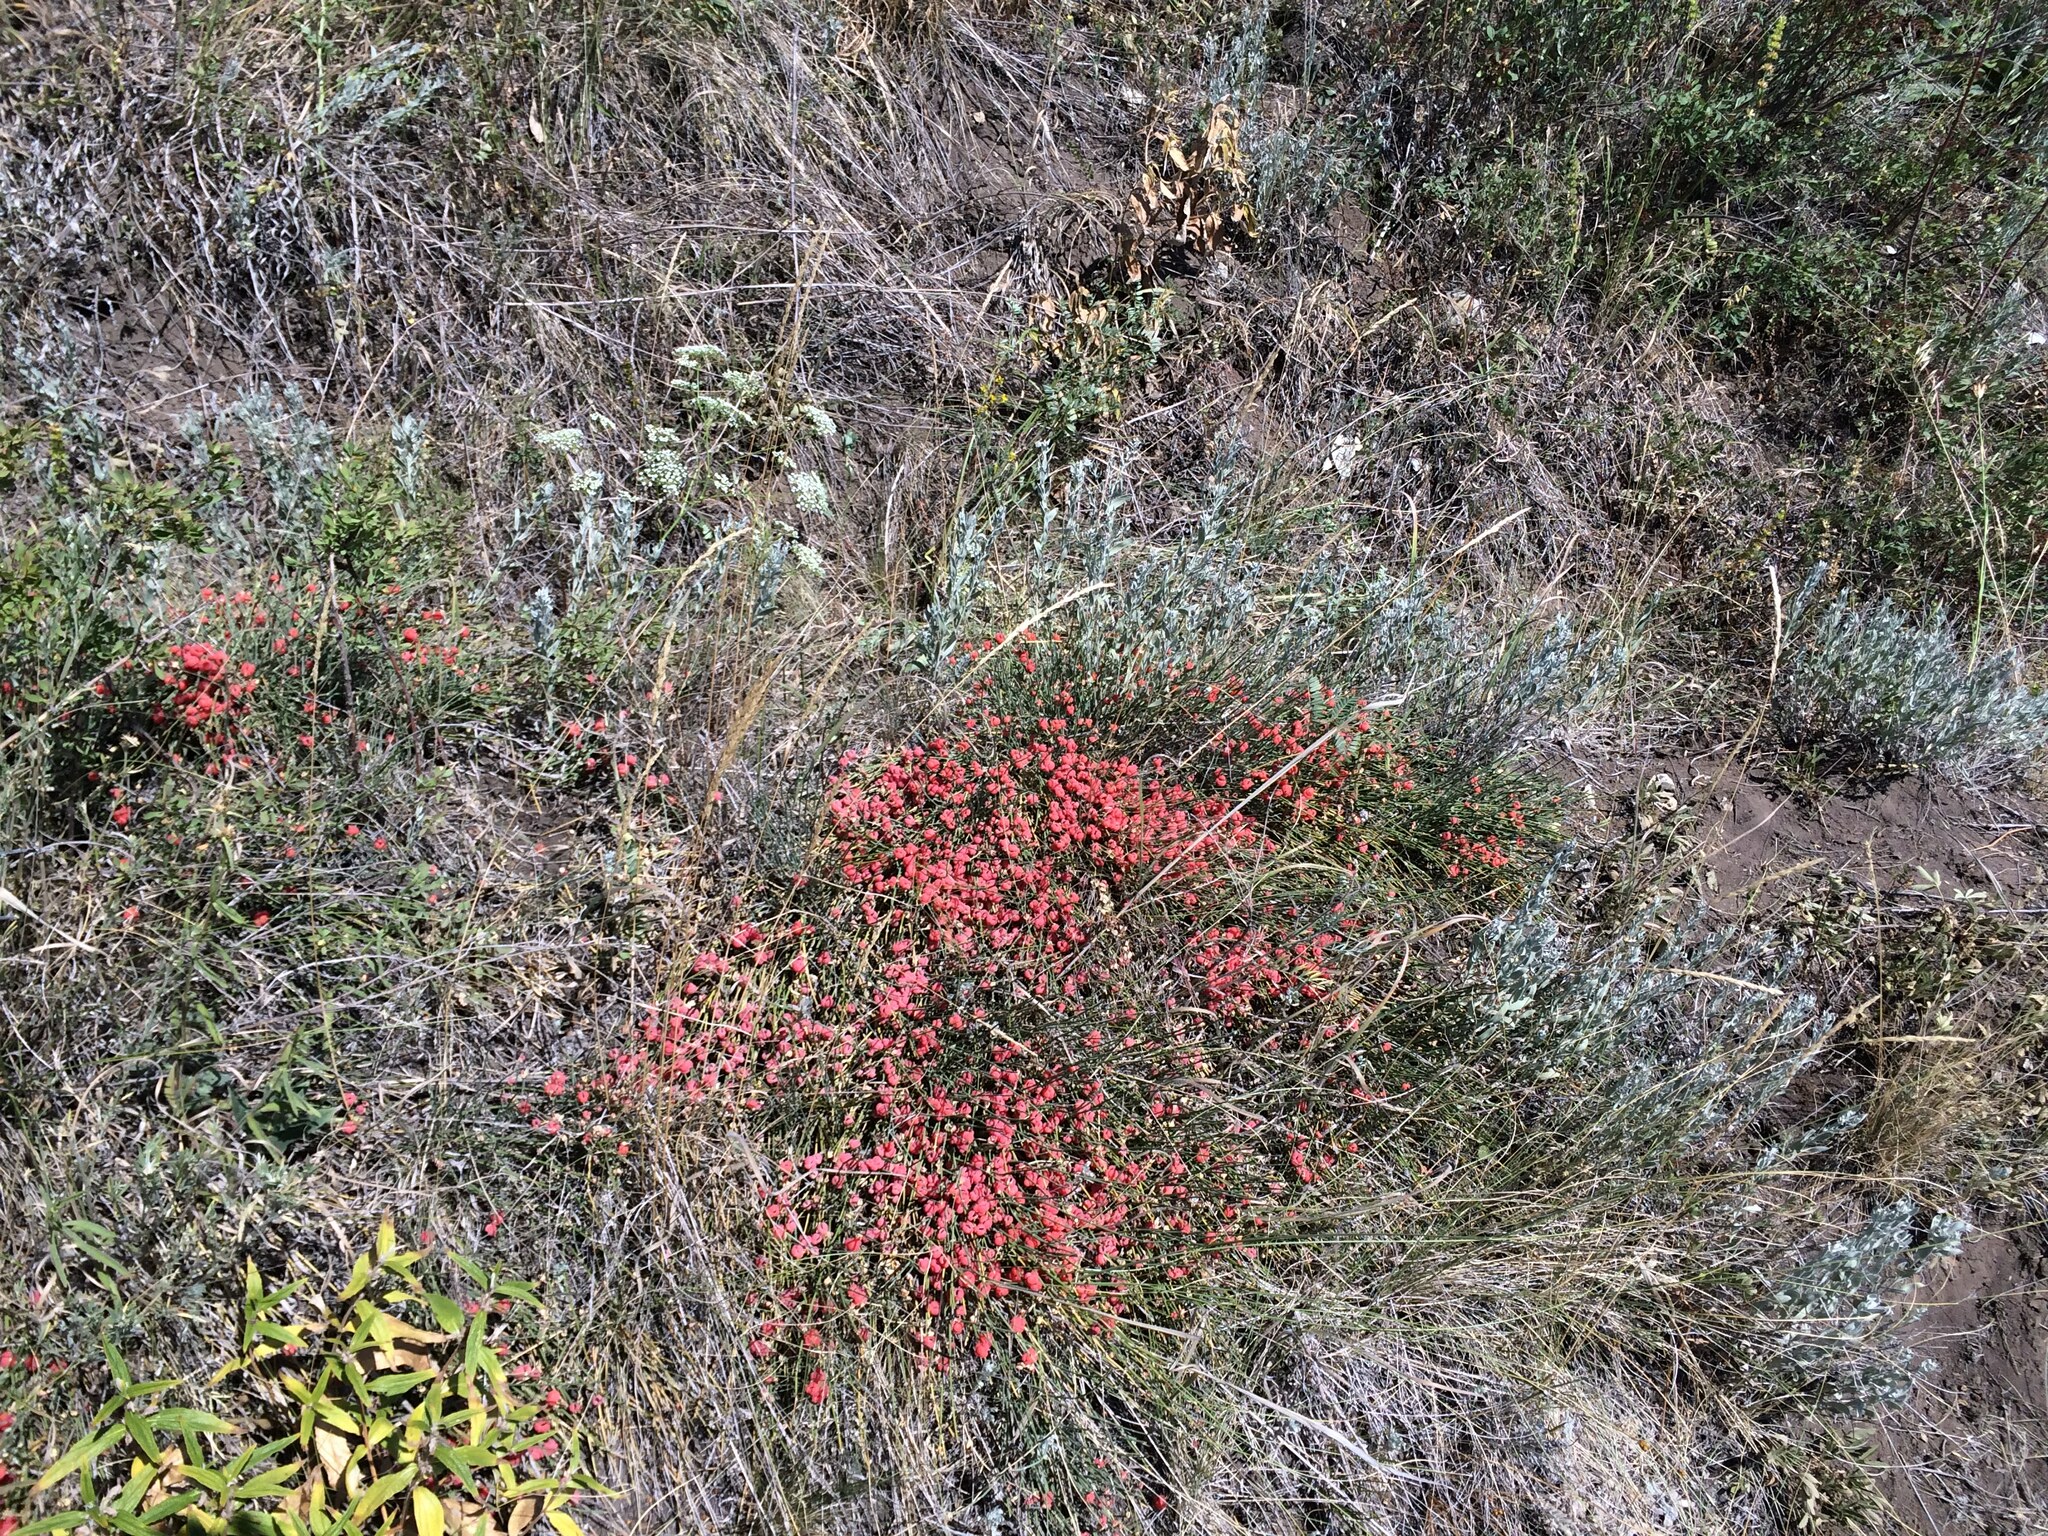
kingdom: Plantae
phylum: Tracheophyta
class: Gnetopsida
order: Ephedrales
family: Ephedraceae
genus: Ephedra
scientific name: Ephedra distachya
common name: Sea grape
